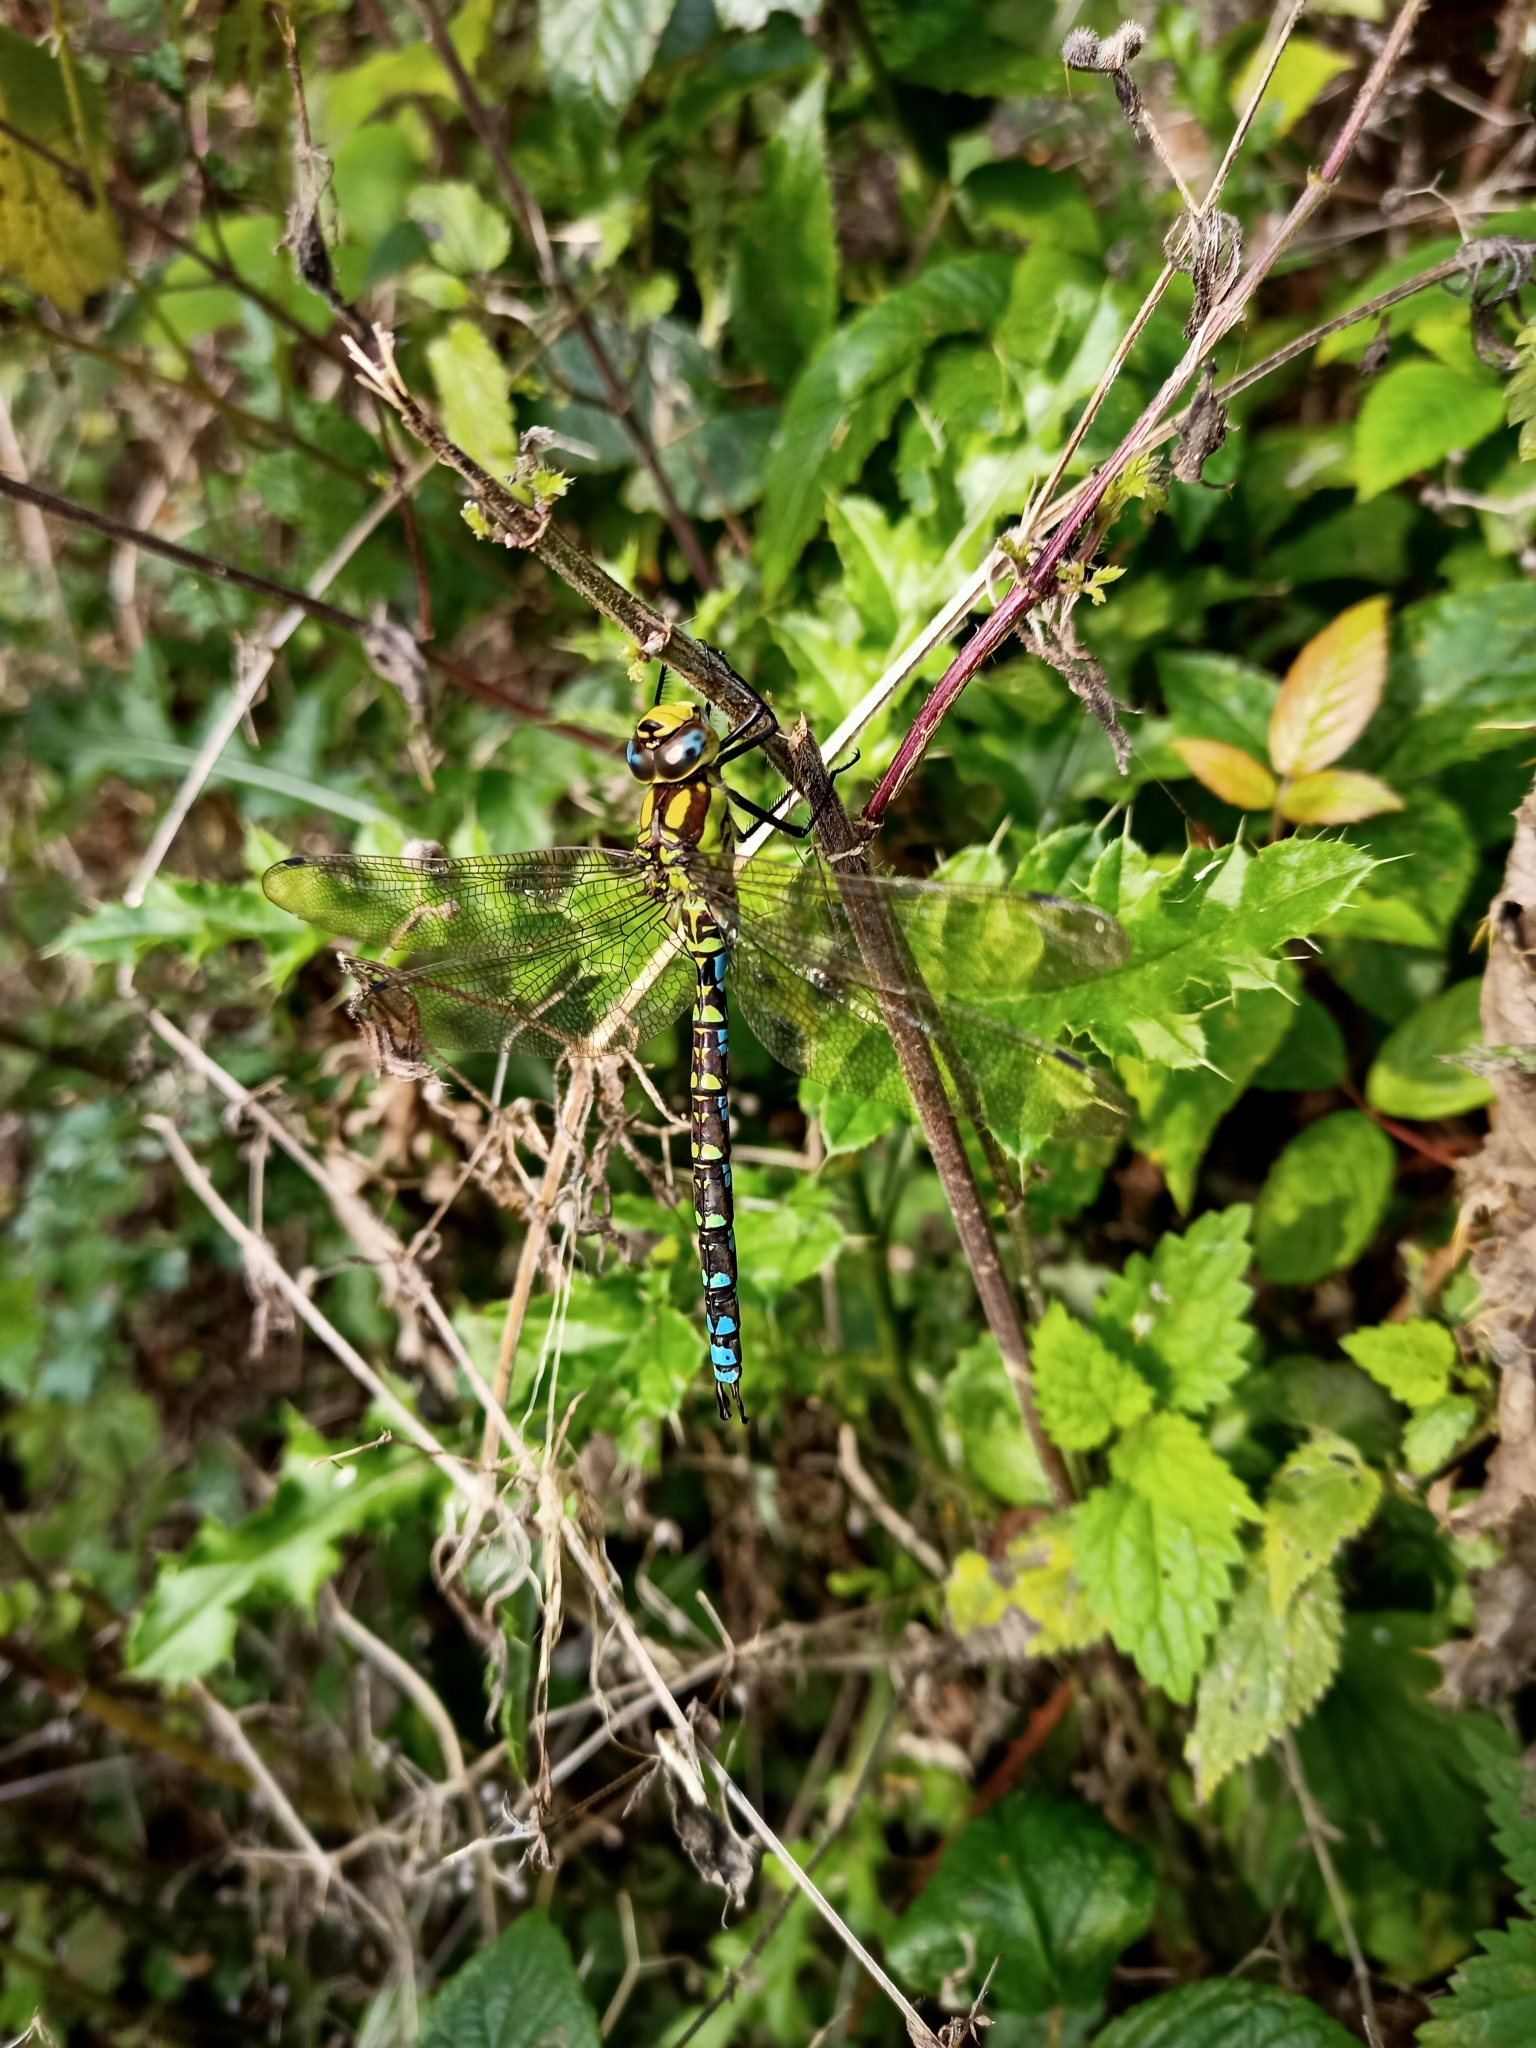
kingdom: Animalia
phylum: Arthropoda
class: Insecta
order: Odonata
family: Aeshnidae
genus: Aeshna
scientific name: Aeshna cyanea
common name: Southern hawker
